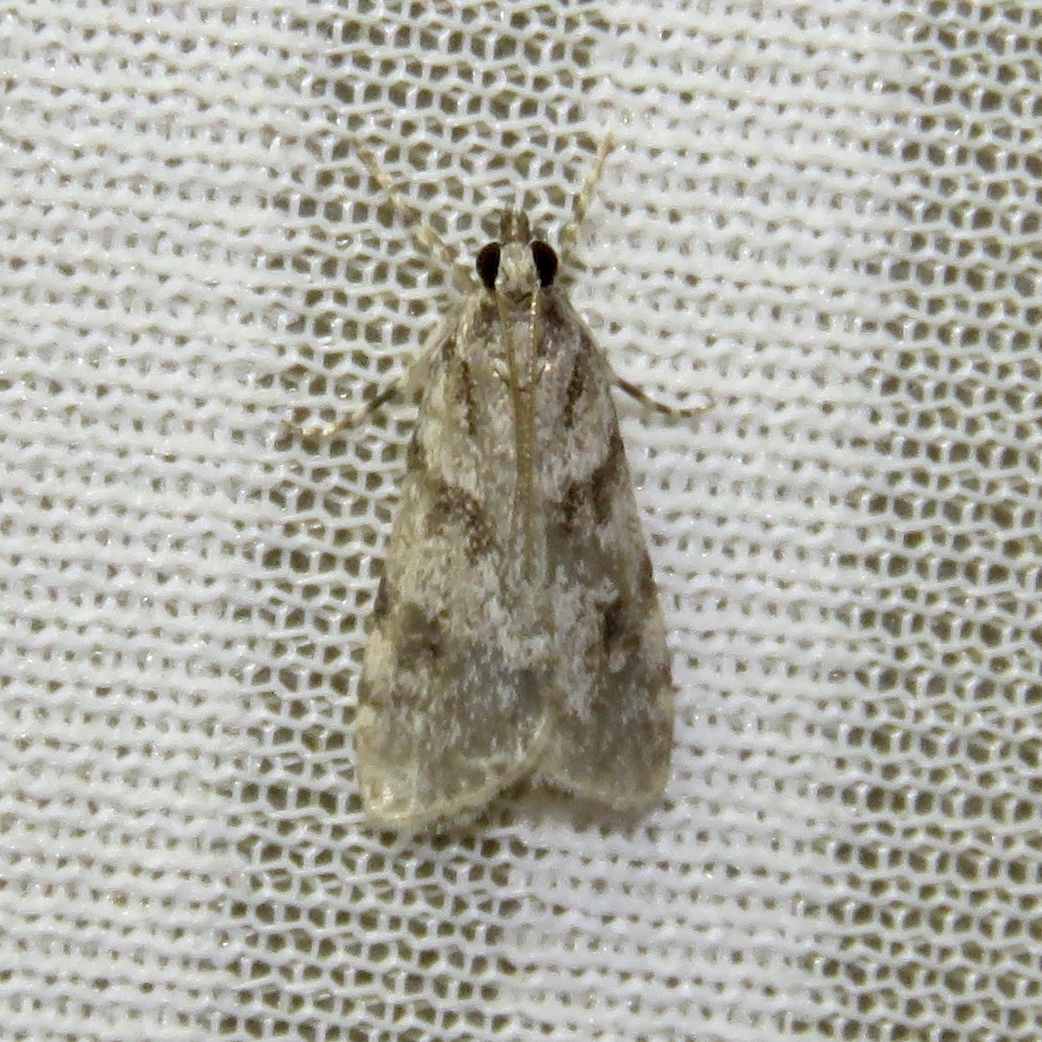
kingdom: Animalia
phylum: Arthropoda
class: Insecta
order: Lepidoptera
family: Crambidae
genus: Scoparia
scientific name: Scoparia biplagialis
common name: Double-striped scoparia moth
